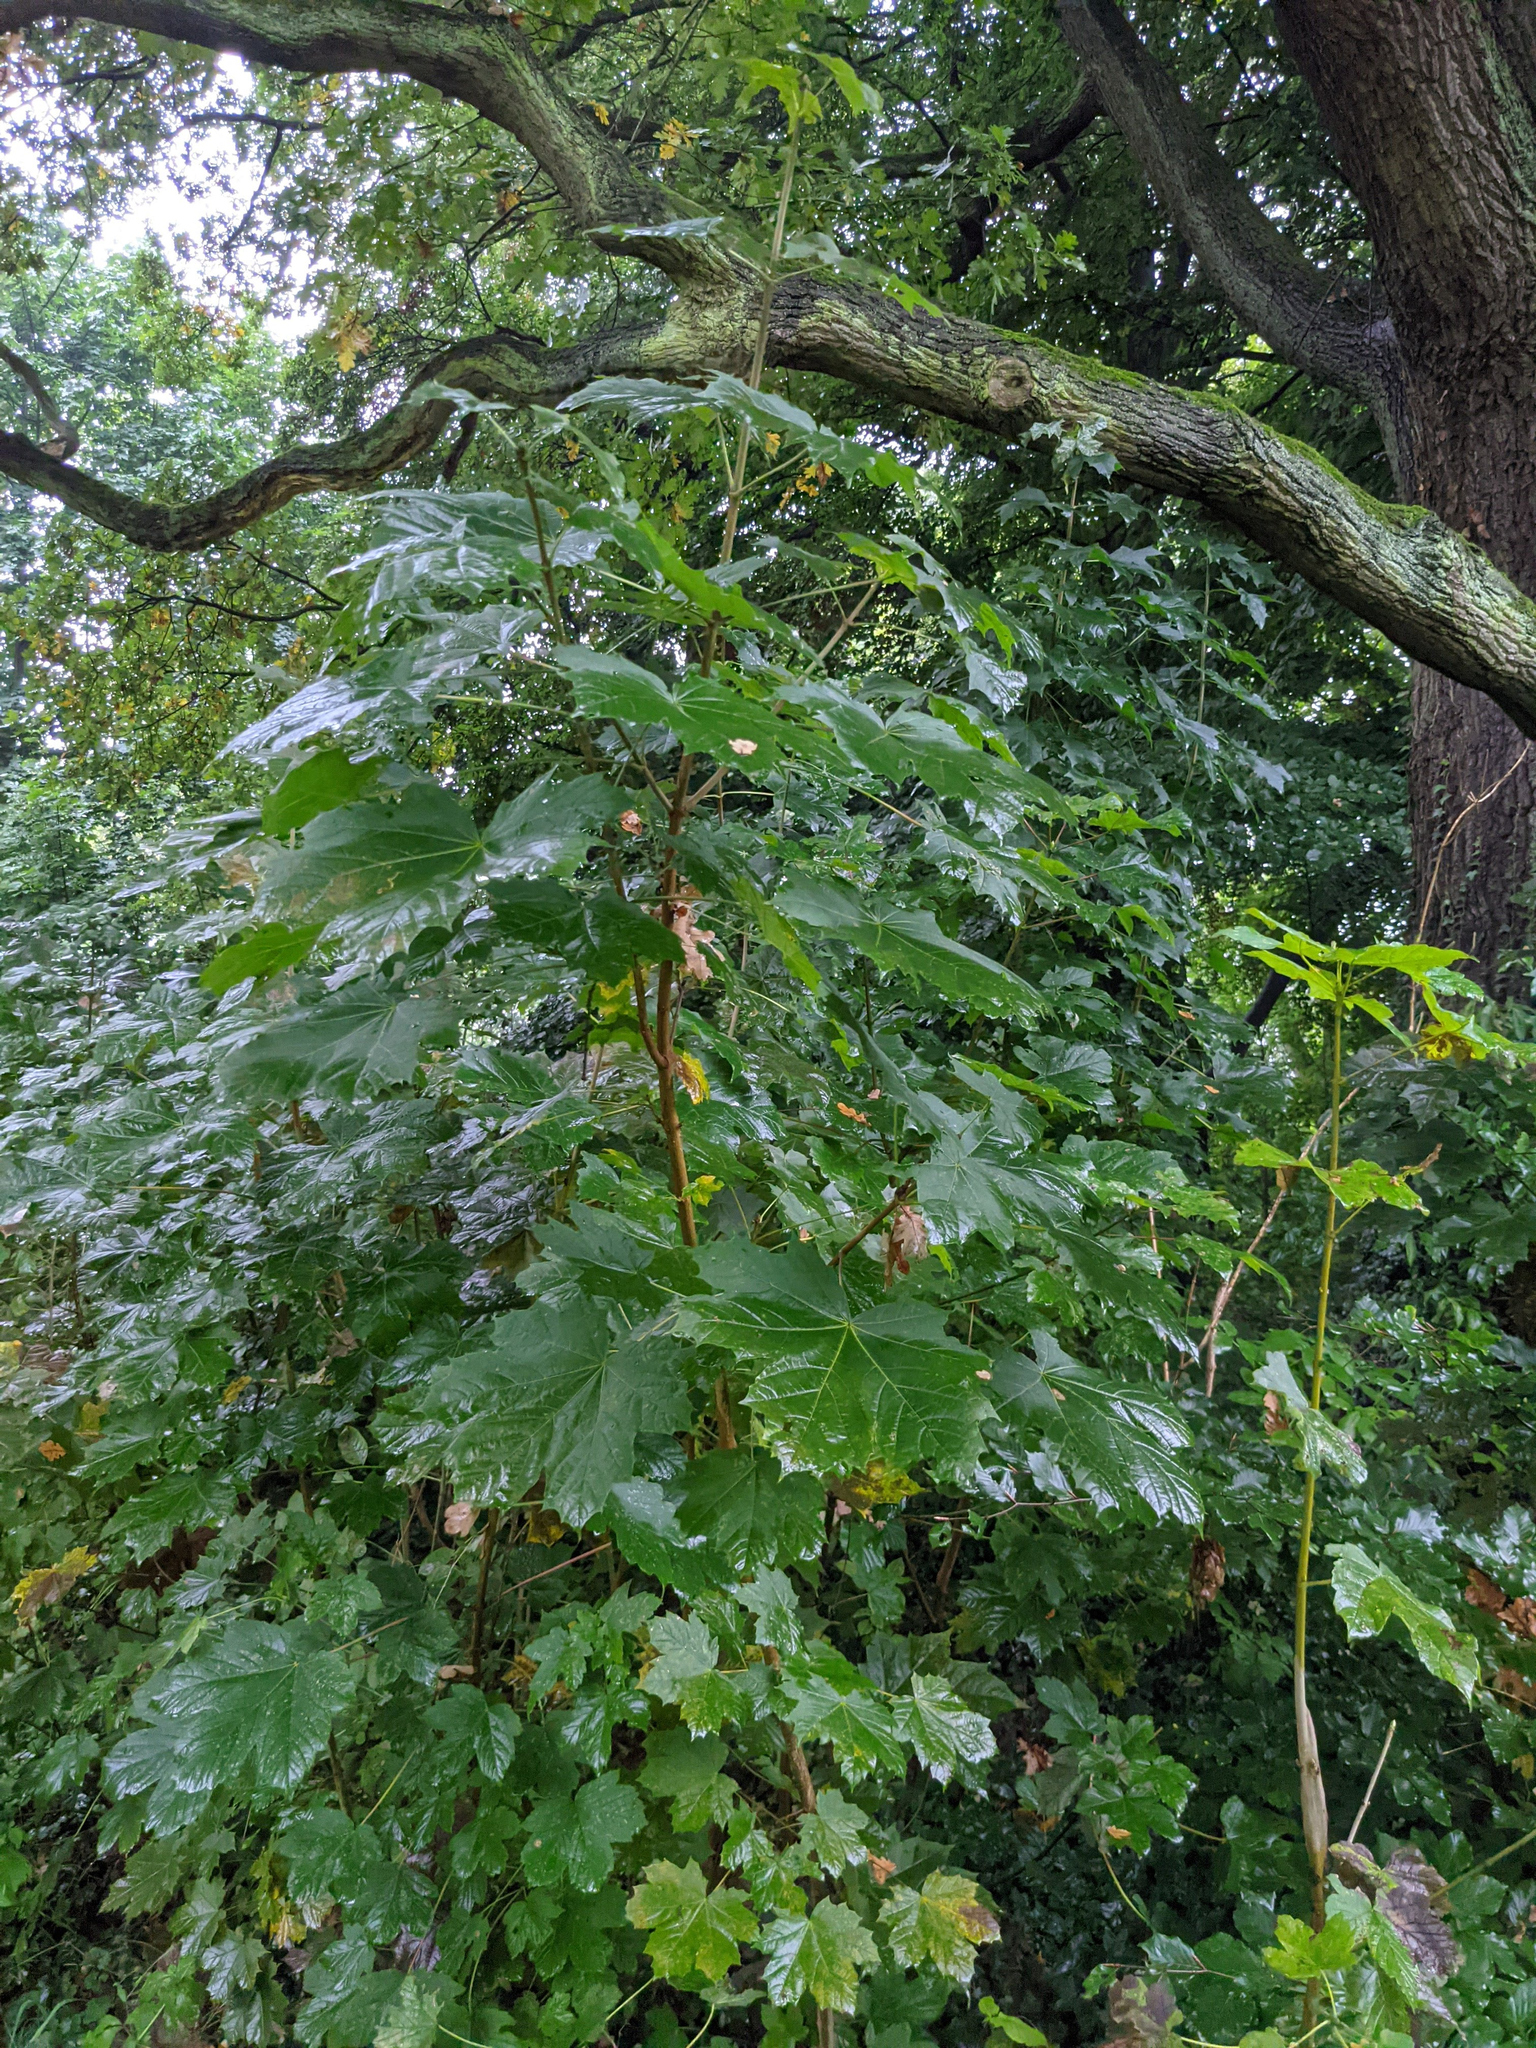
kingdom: Plantae
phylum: Tracheophyta
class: Magnoliopsida
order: Sapindales
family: Sapindaceae
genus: Acer
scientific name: Acer platanoides
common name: Norway maple
